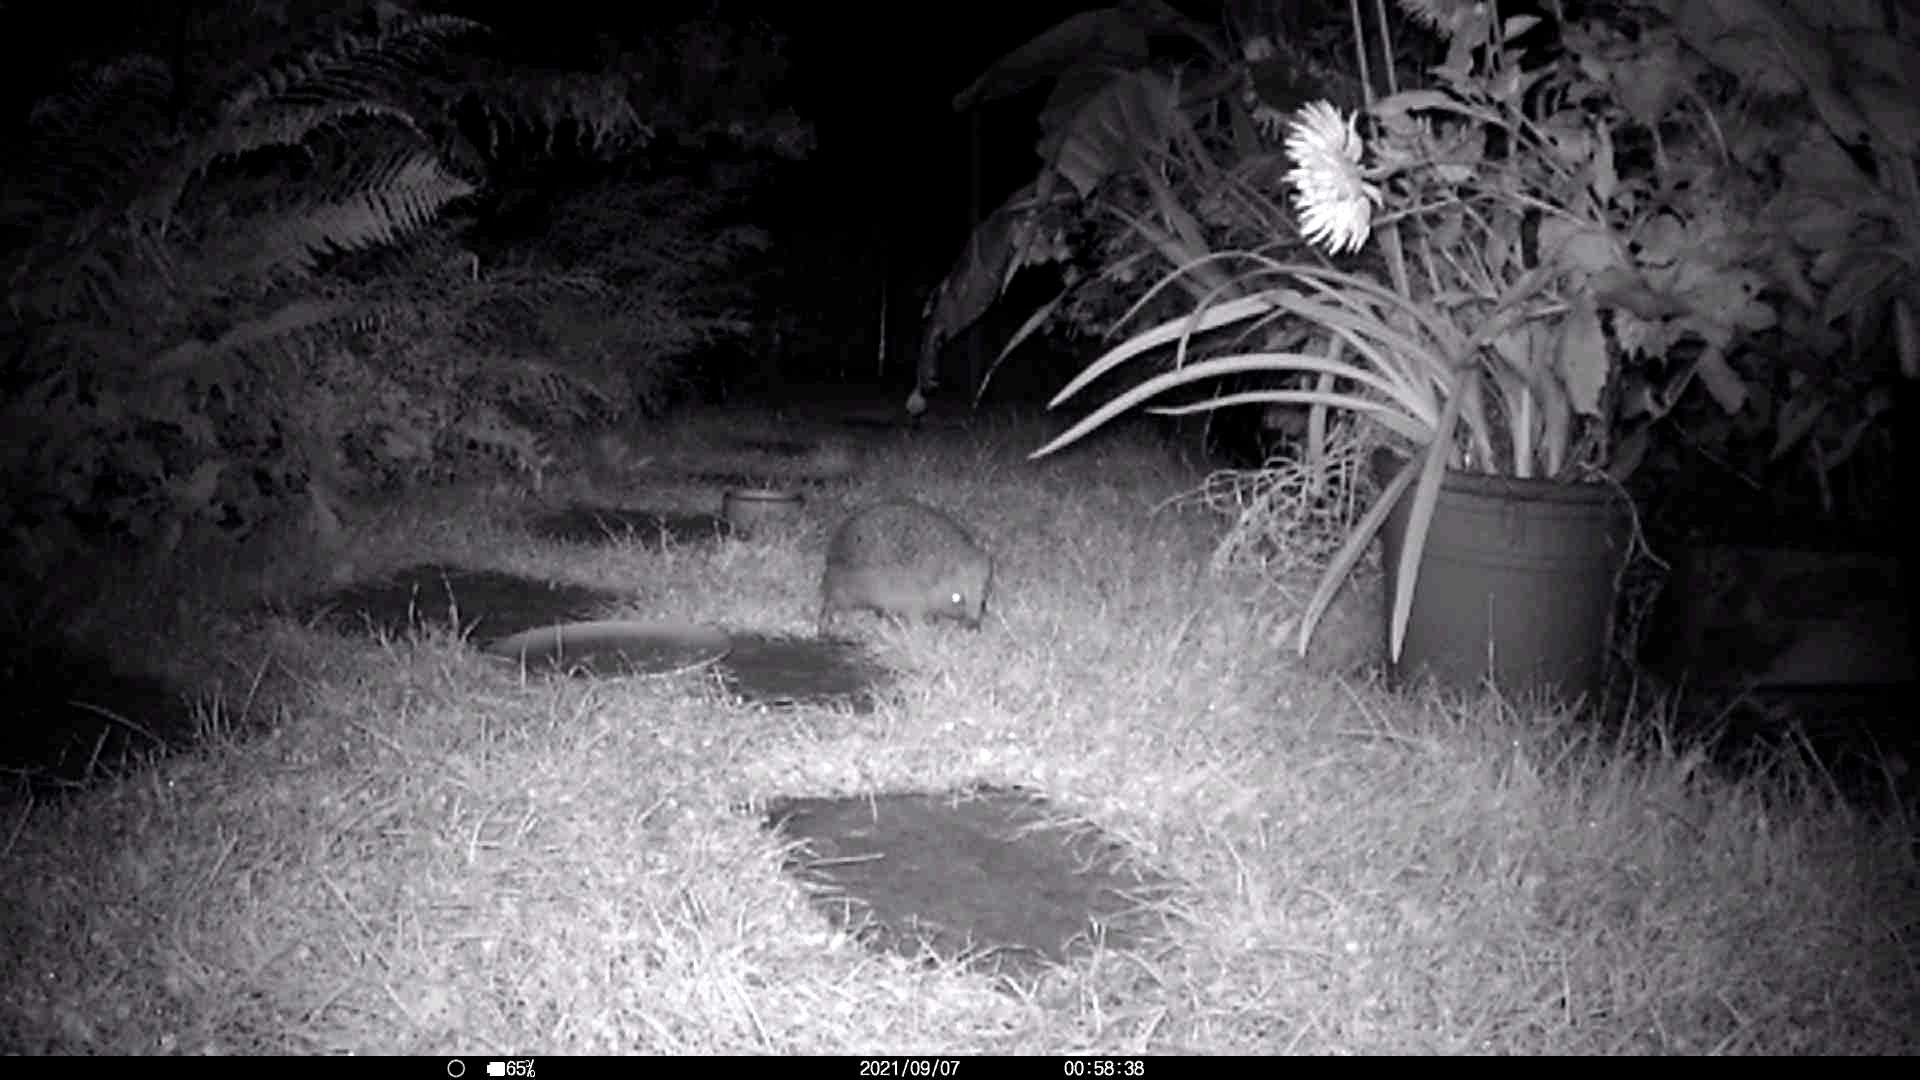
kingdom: Animalia
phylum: Chordata
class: Mammalia
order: Erinaceomorpha
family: Erinaceidae
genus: Erinaceus
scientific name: Erinaceus europaeus
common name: West european hedgehog
